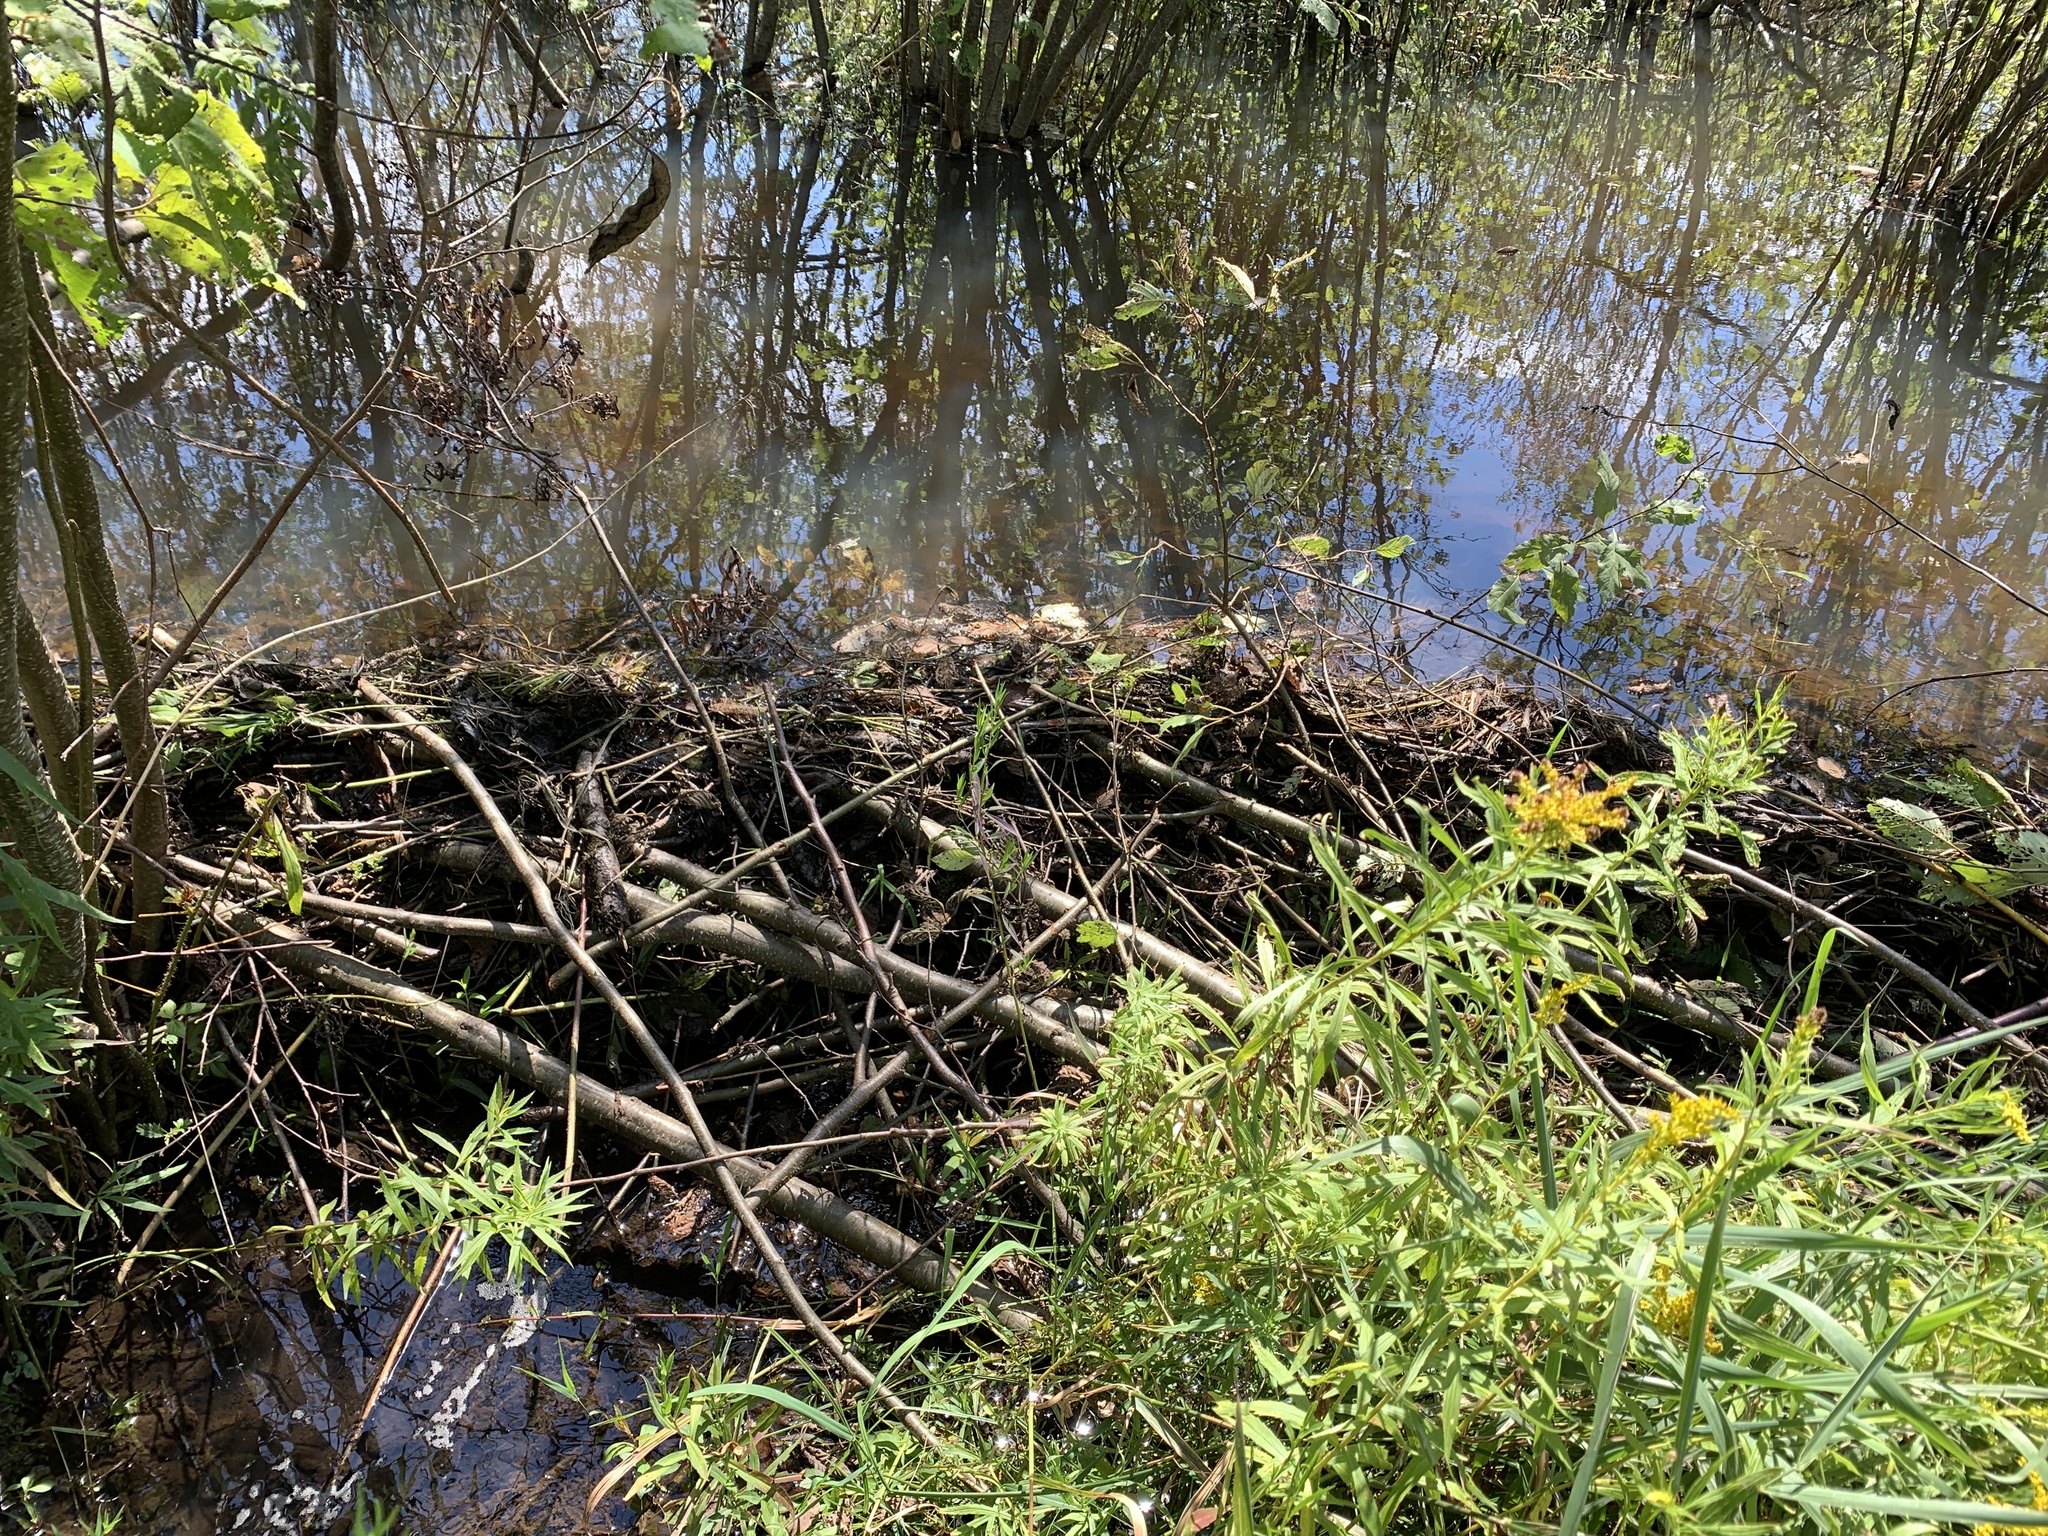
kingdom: Animalia
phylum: Chordata
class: Mammalia
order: Rodentia
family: Castoridae
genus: Castor
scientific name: Castor canadensis
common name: American beaver
